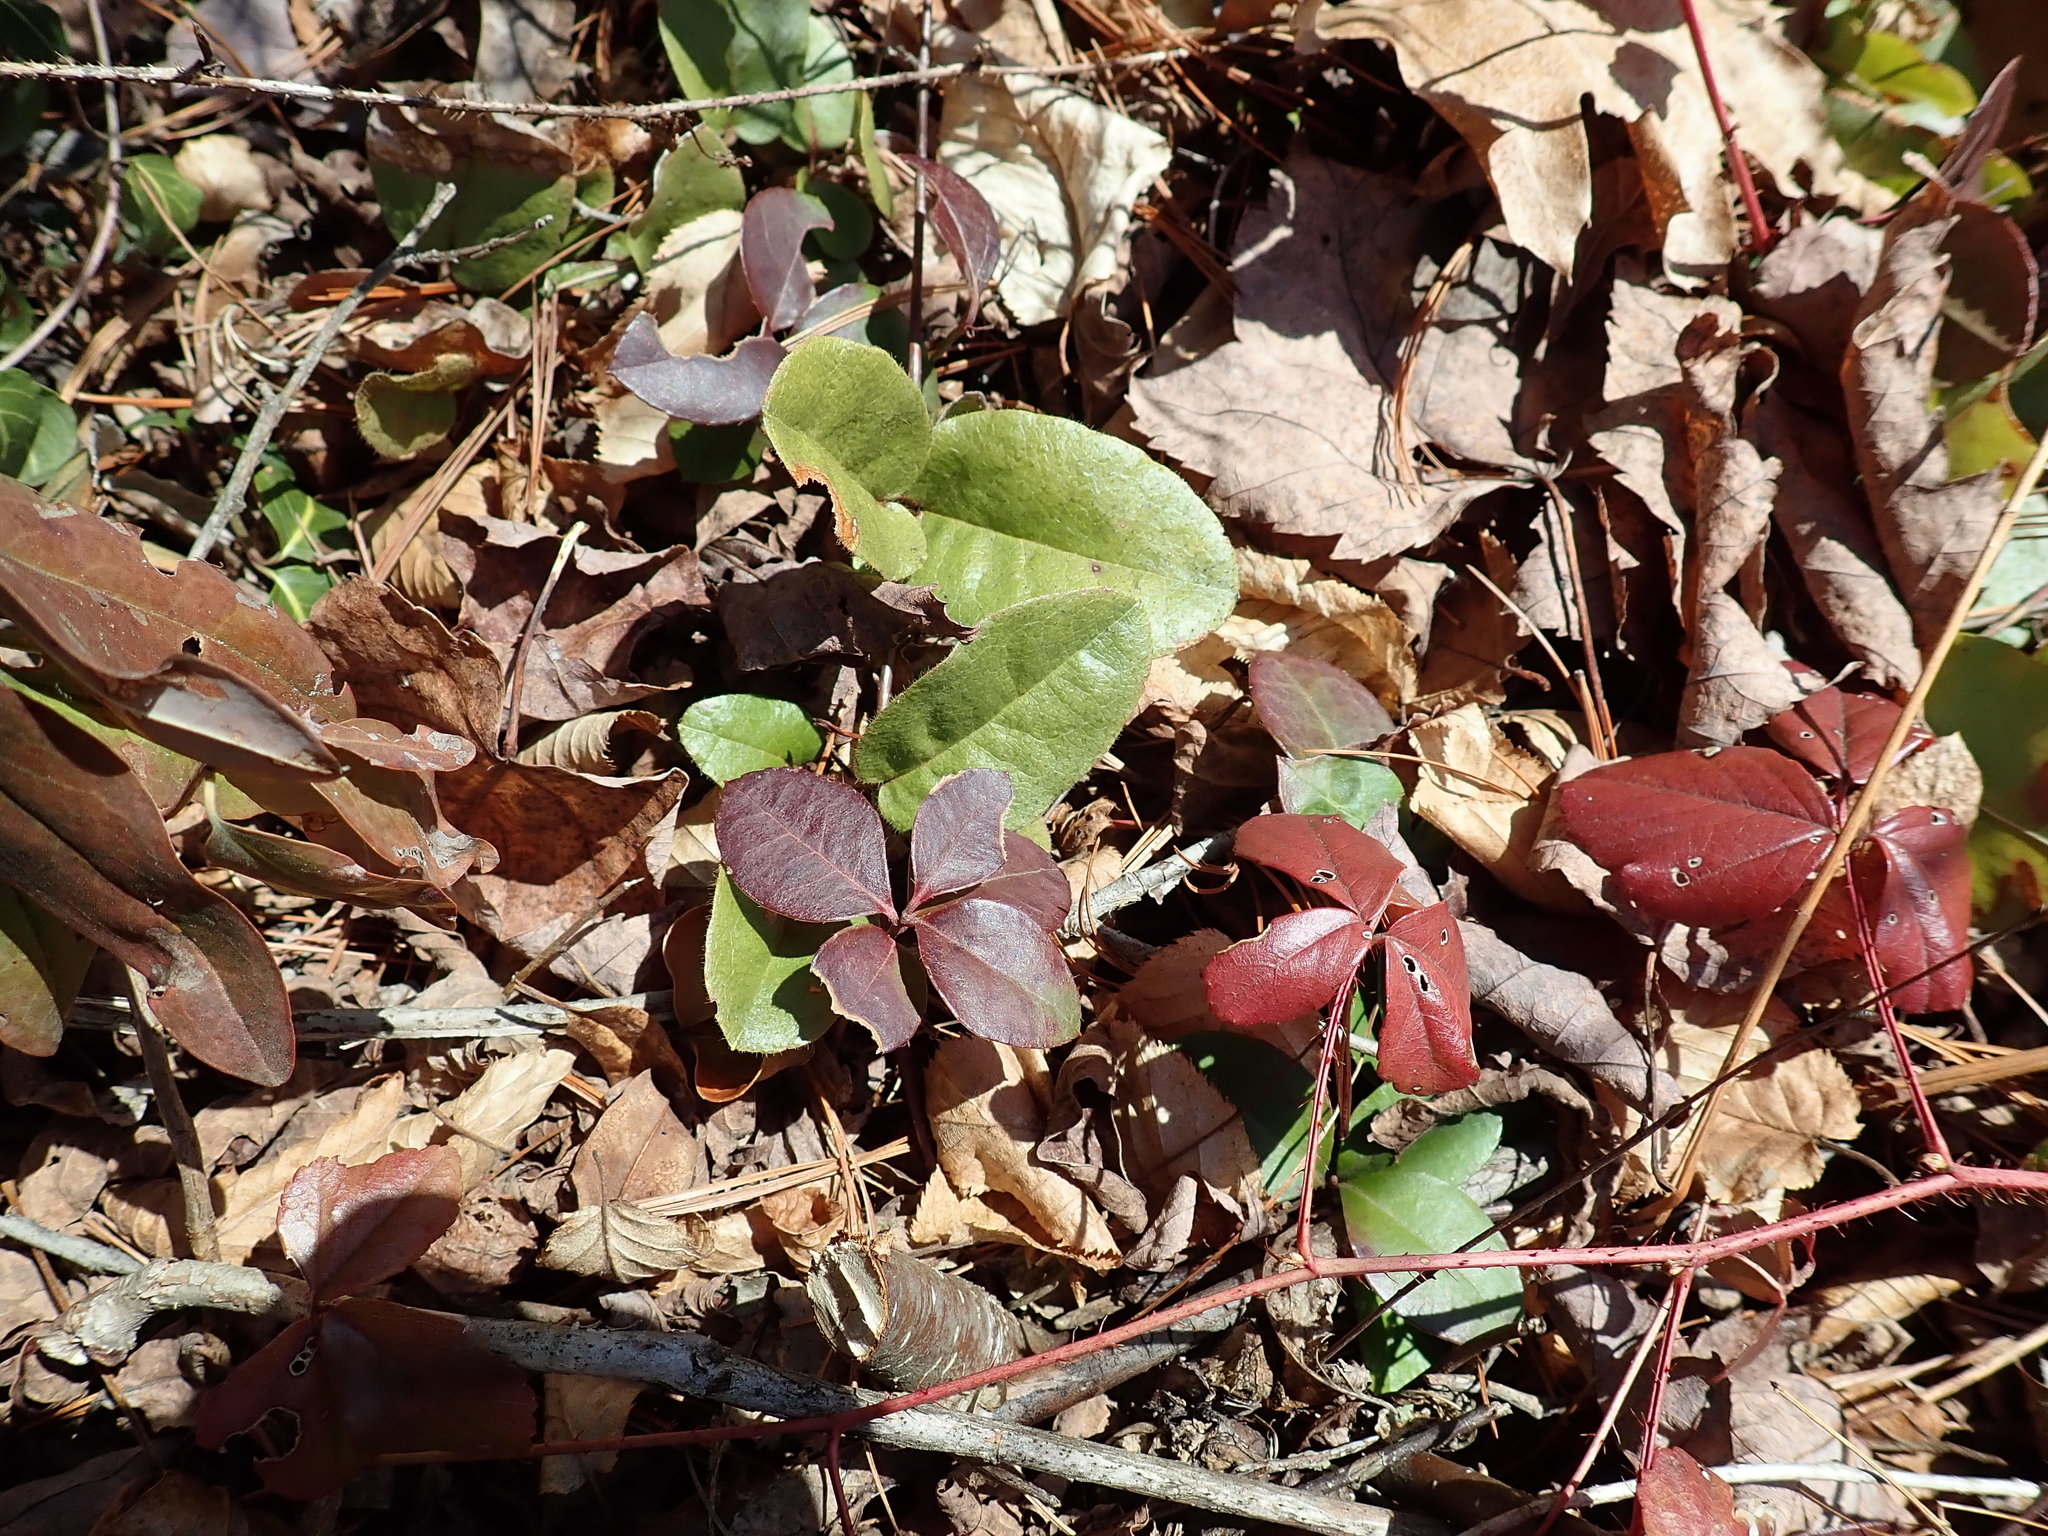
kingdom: Plantae
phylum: Tracheophyta
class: Magnoliopsida
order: Ericales
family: Ericaceae
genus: Epigaea
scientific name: Epigaea repens
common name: Gravelroot
